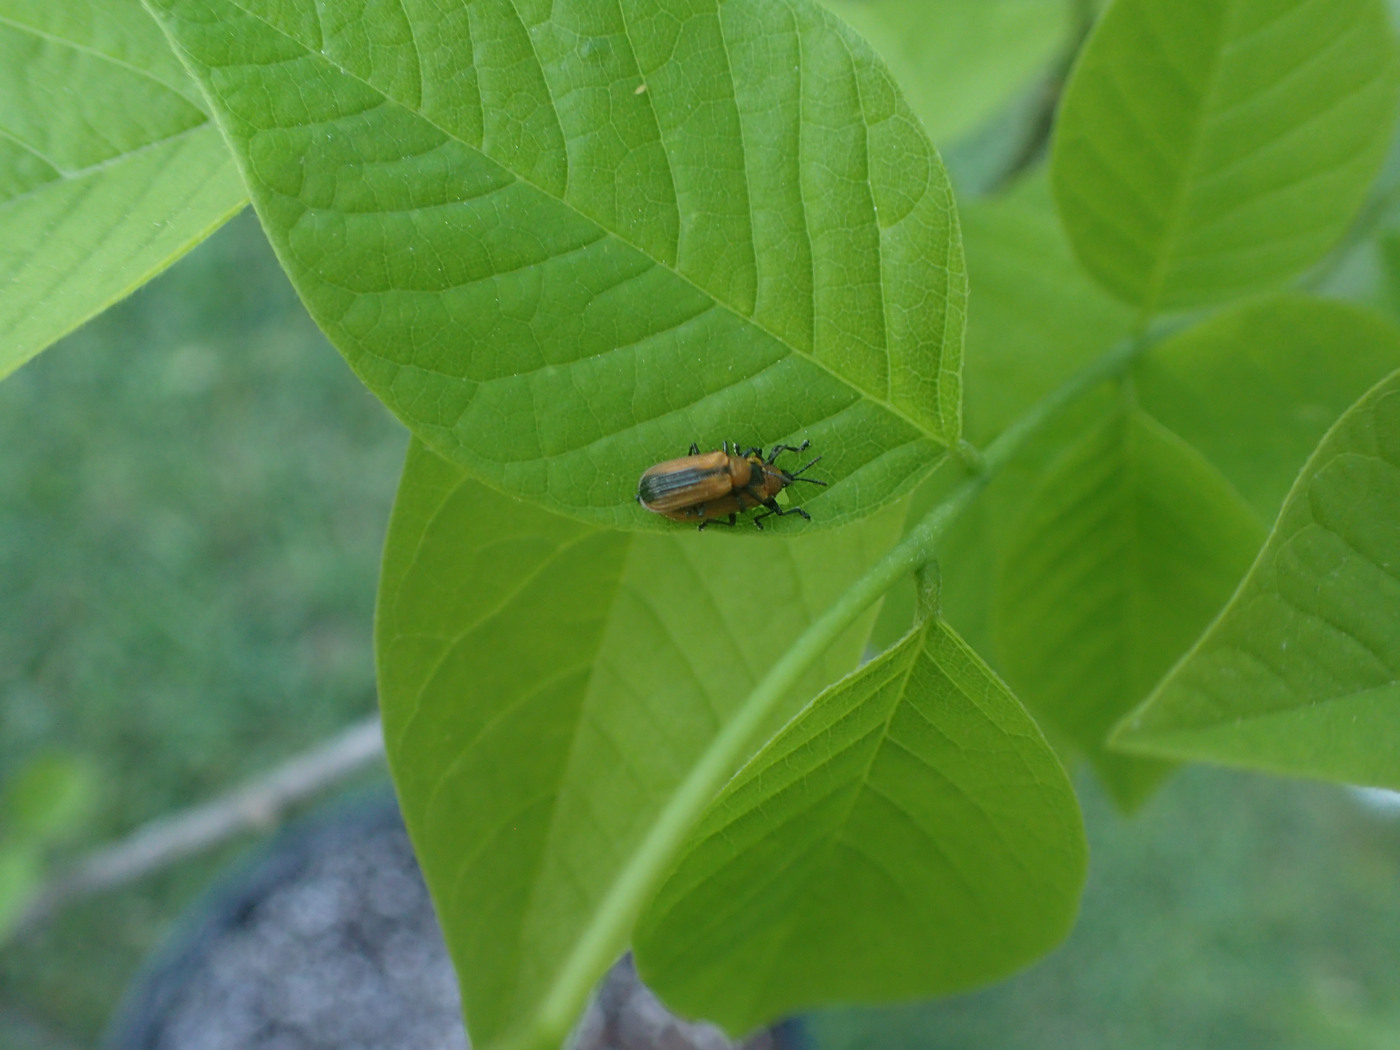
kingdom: Animalia
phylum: Arthropoda
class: Insecta
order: Coleoptera
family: Chrysomelidae
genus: Odontota
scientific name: Odontota dorsalis
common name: Locust leaf-miner beetle
